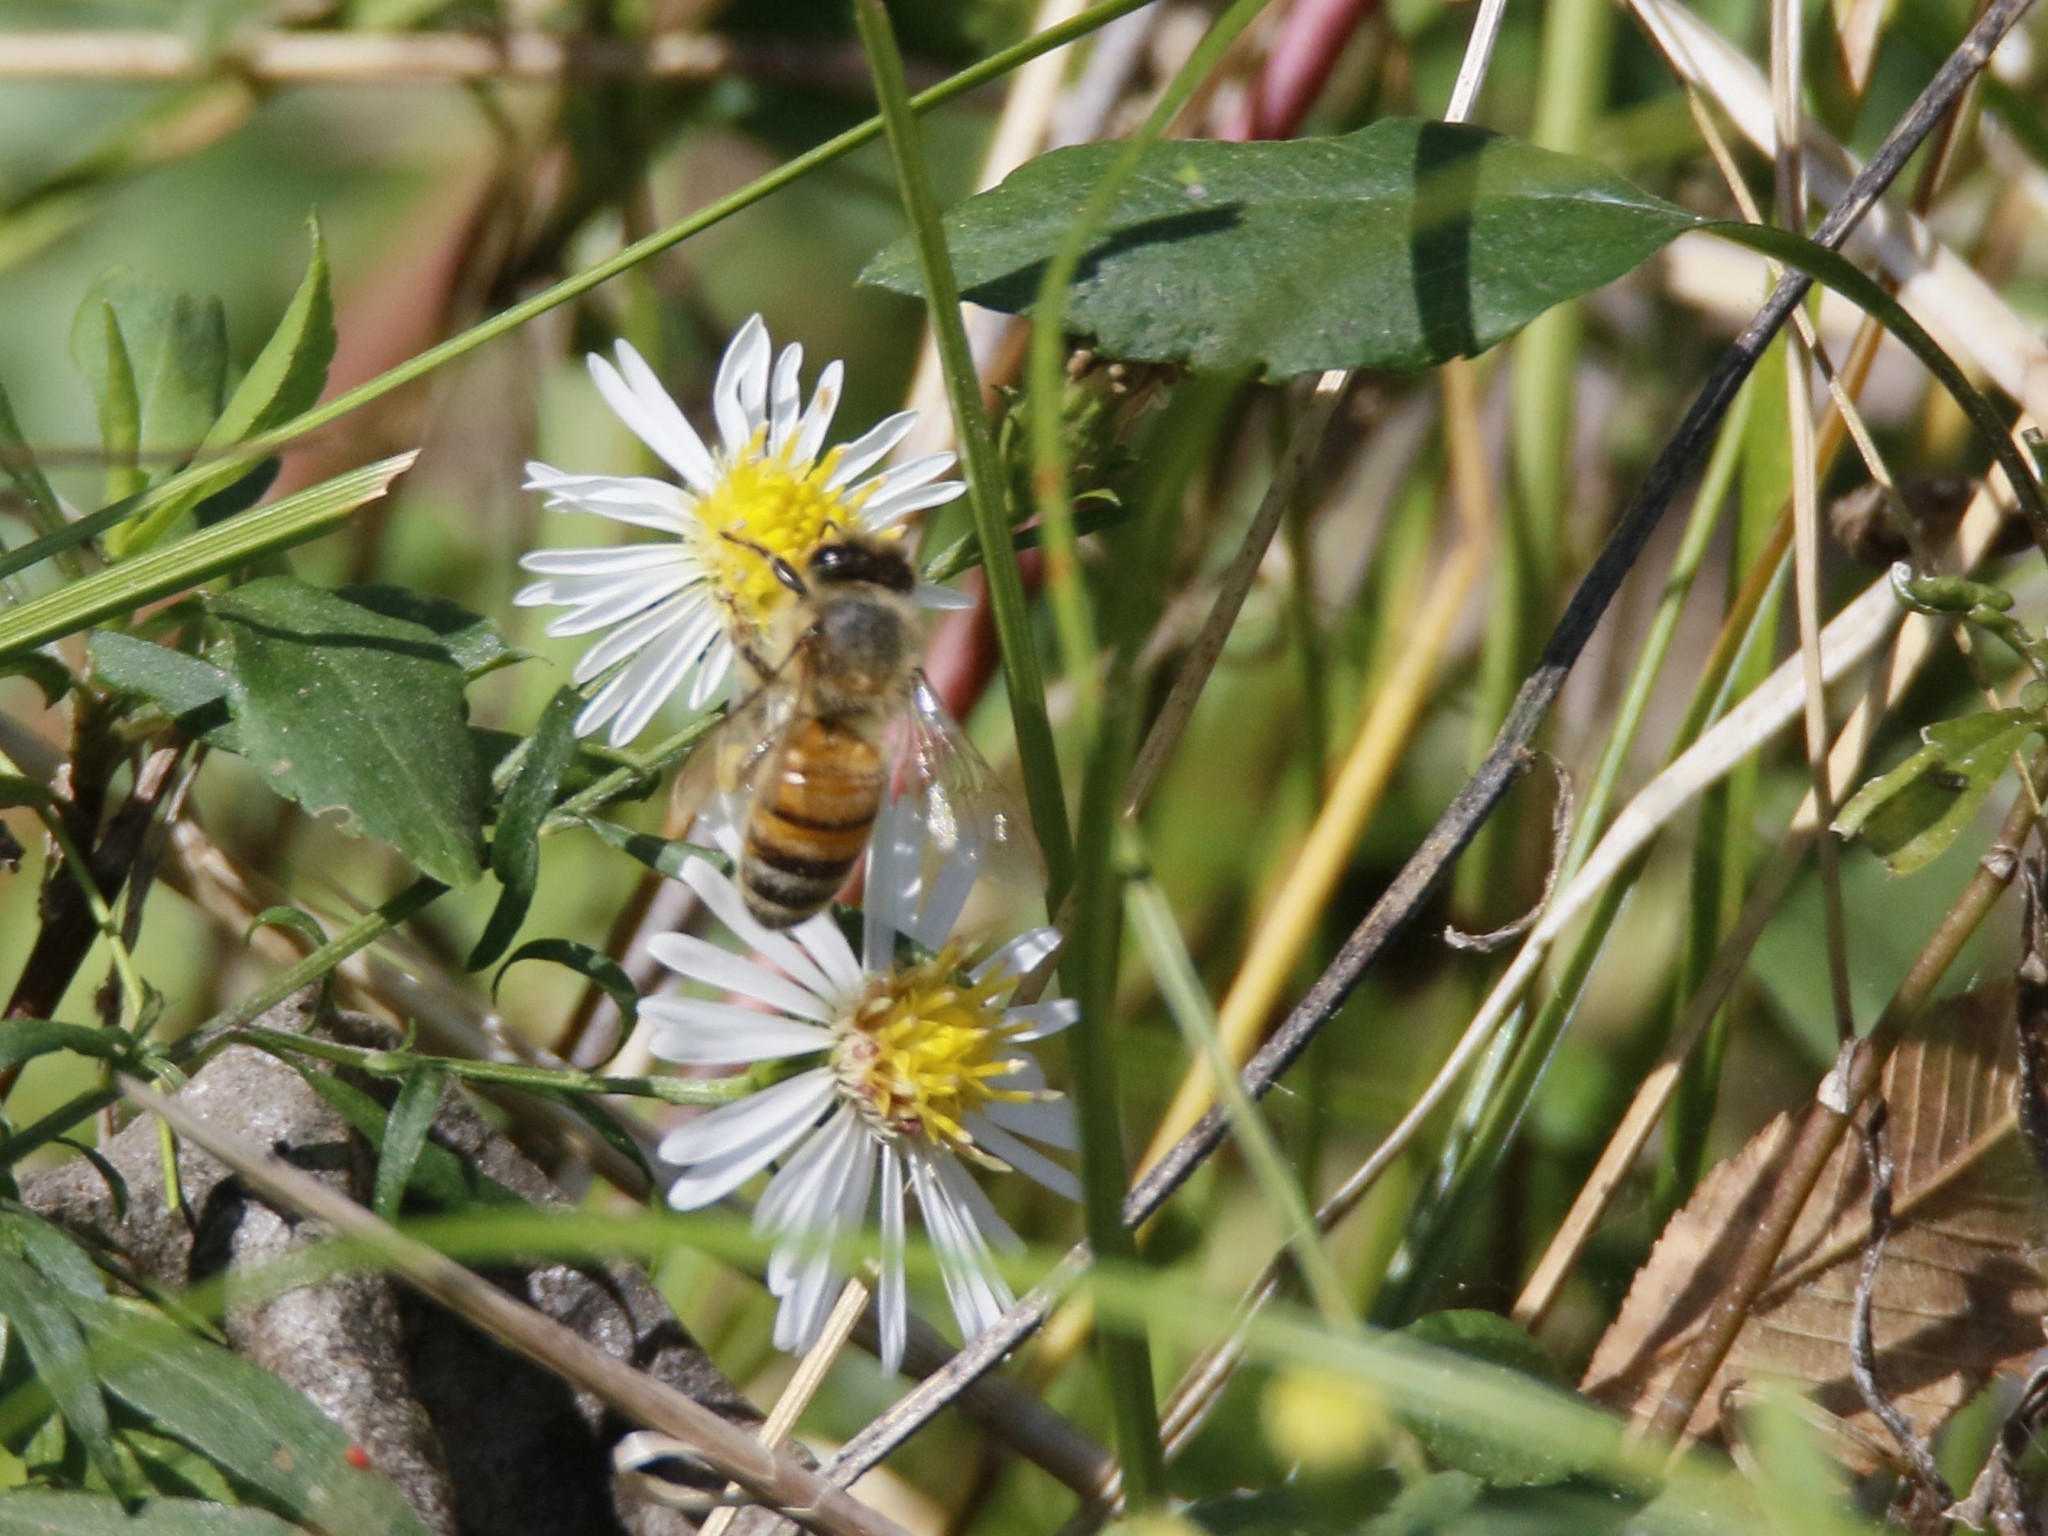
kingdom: Animalia
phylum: Arthropoda
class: Insecta
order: Hymenoptera
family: Apidae
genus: Apis
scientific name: Apis mellifera
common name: Honey bee
